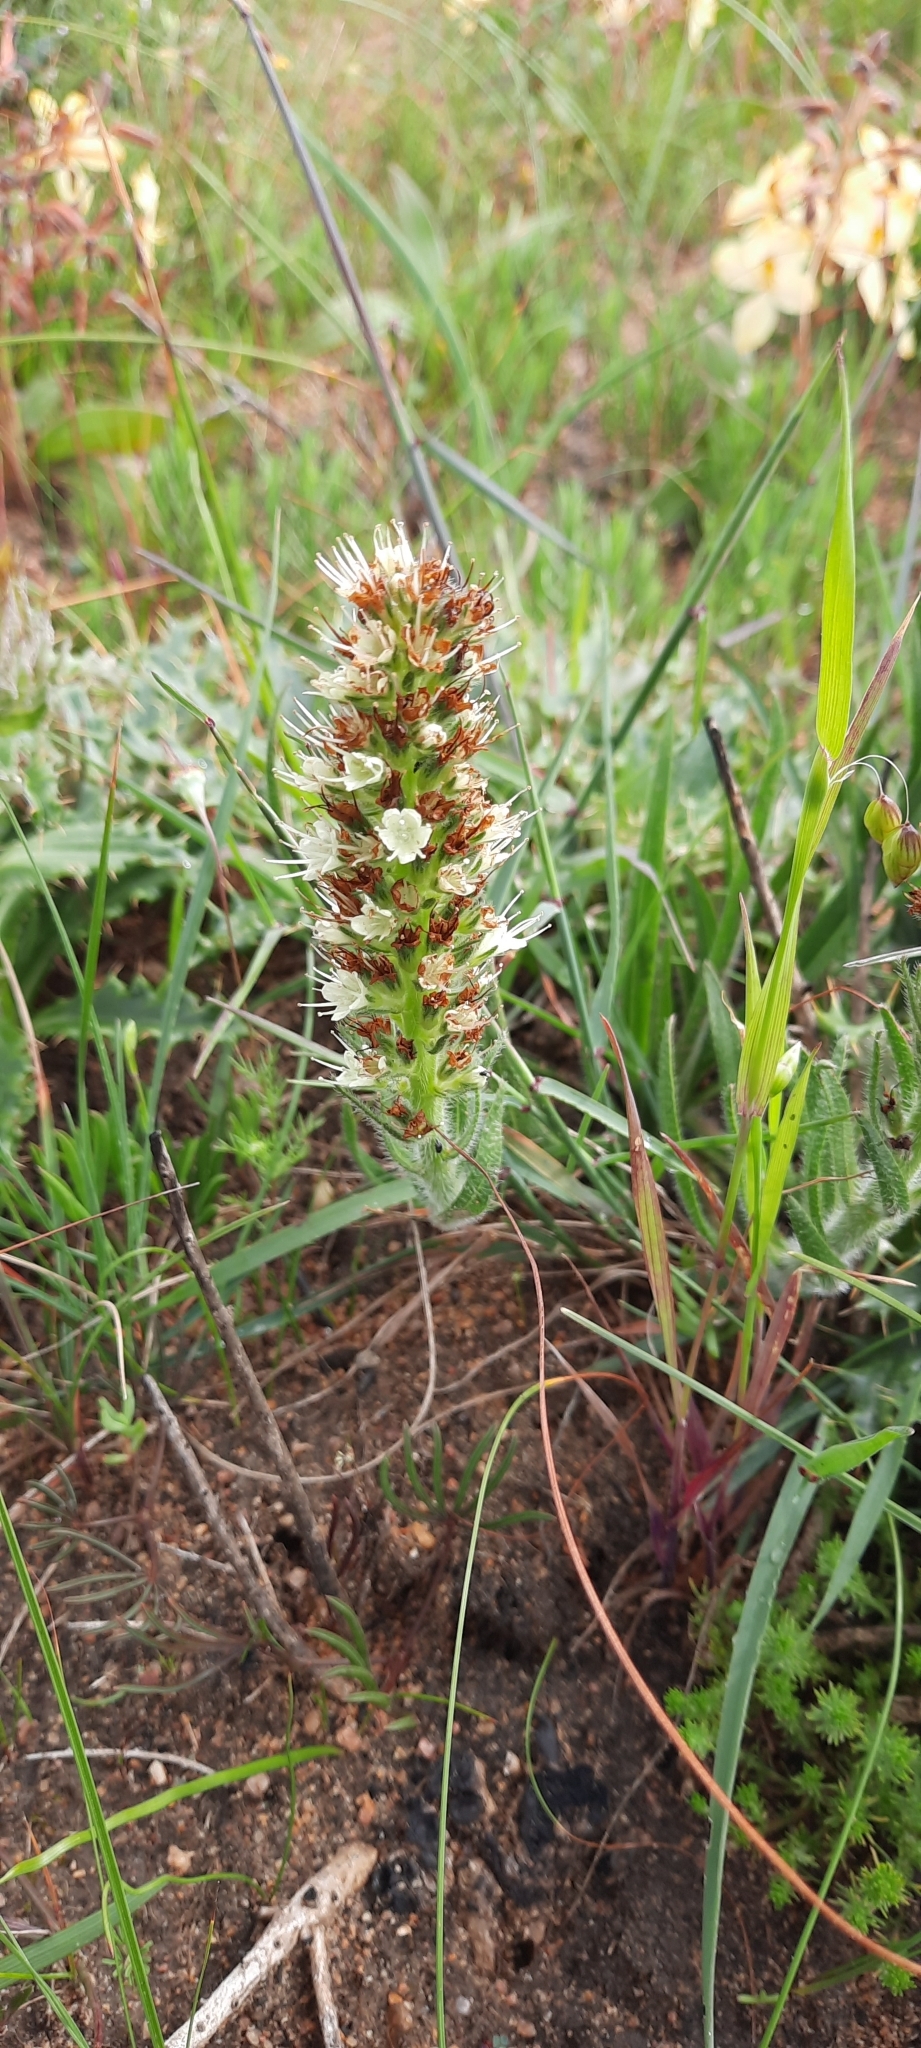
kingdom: Plantae
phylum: Tracheophyta
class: Magnoliopsida
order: Boraginales
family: Boraginaceae
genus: Lobostemon
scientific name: Lobostemon splendens
